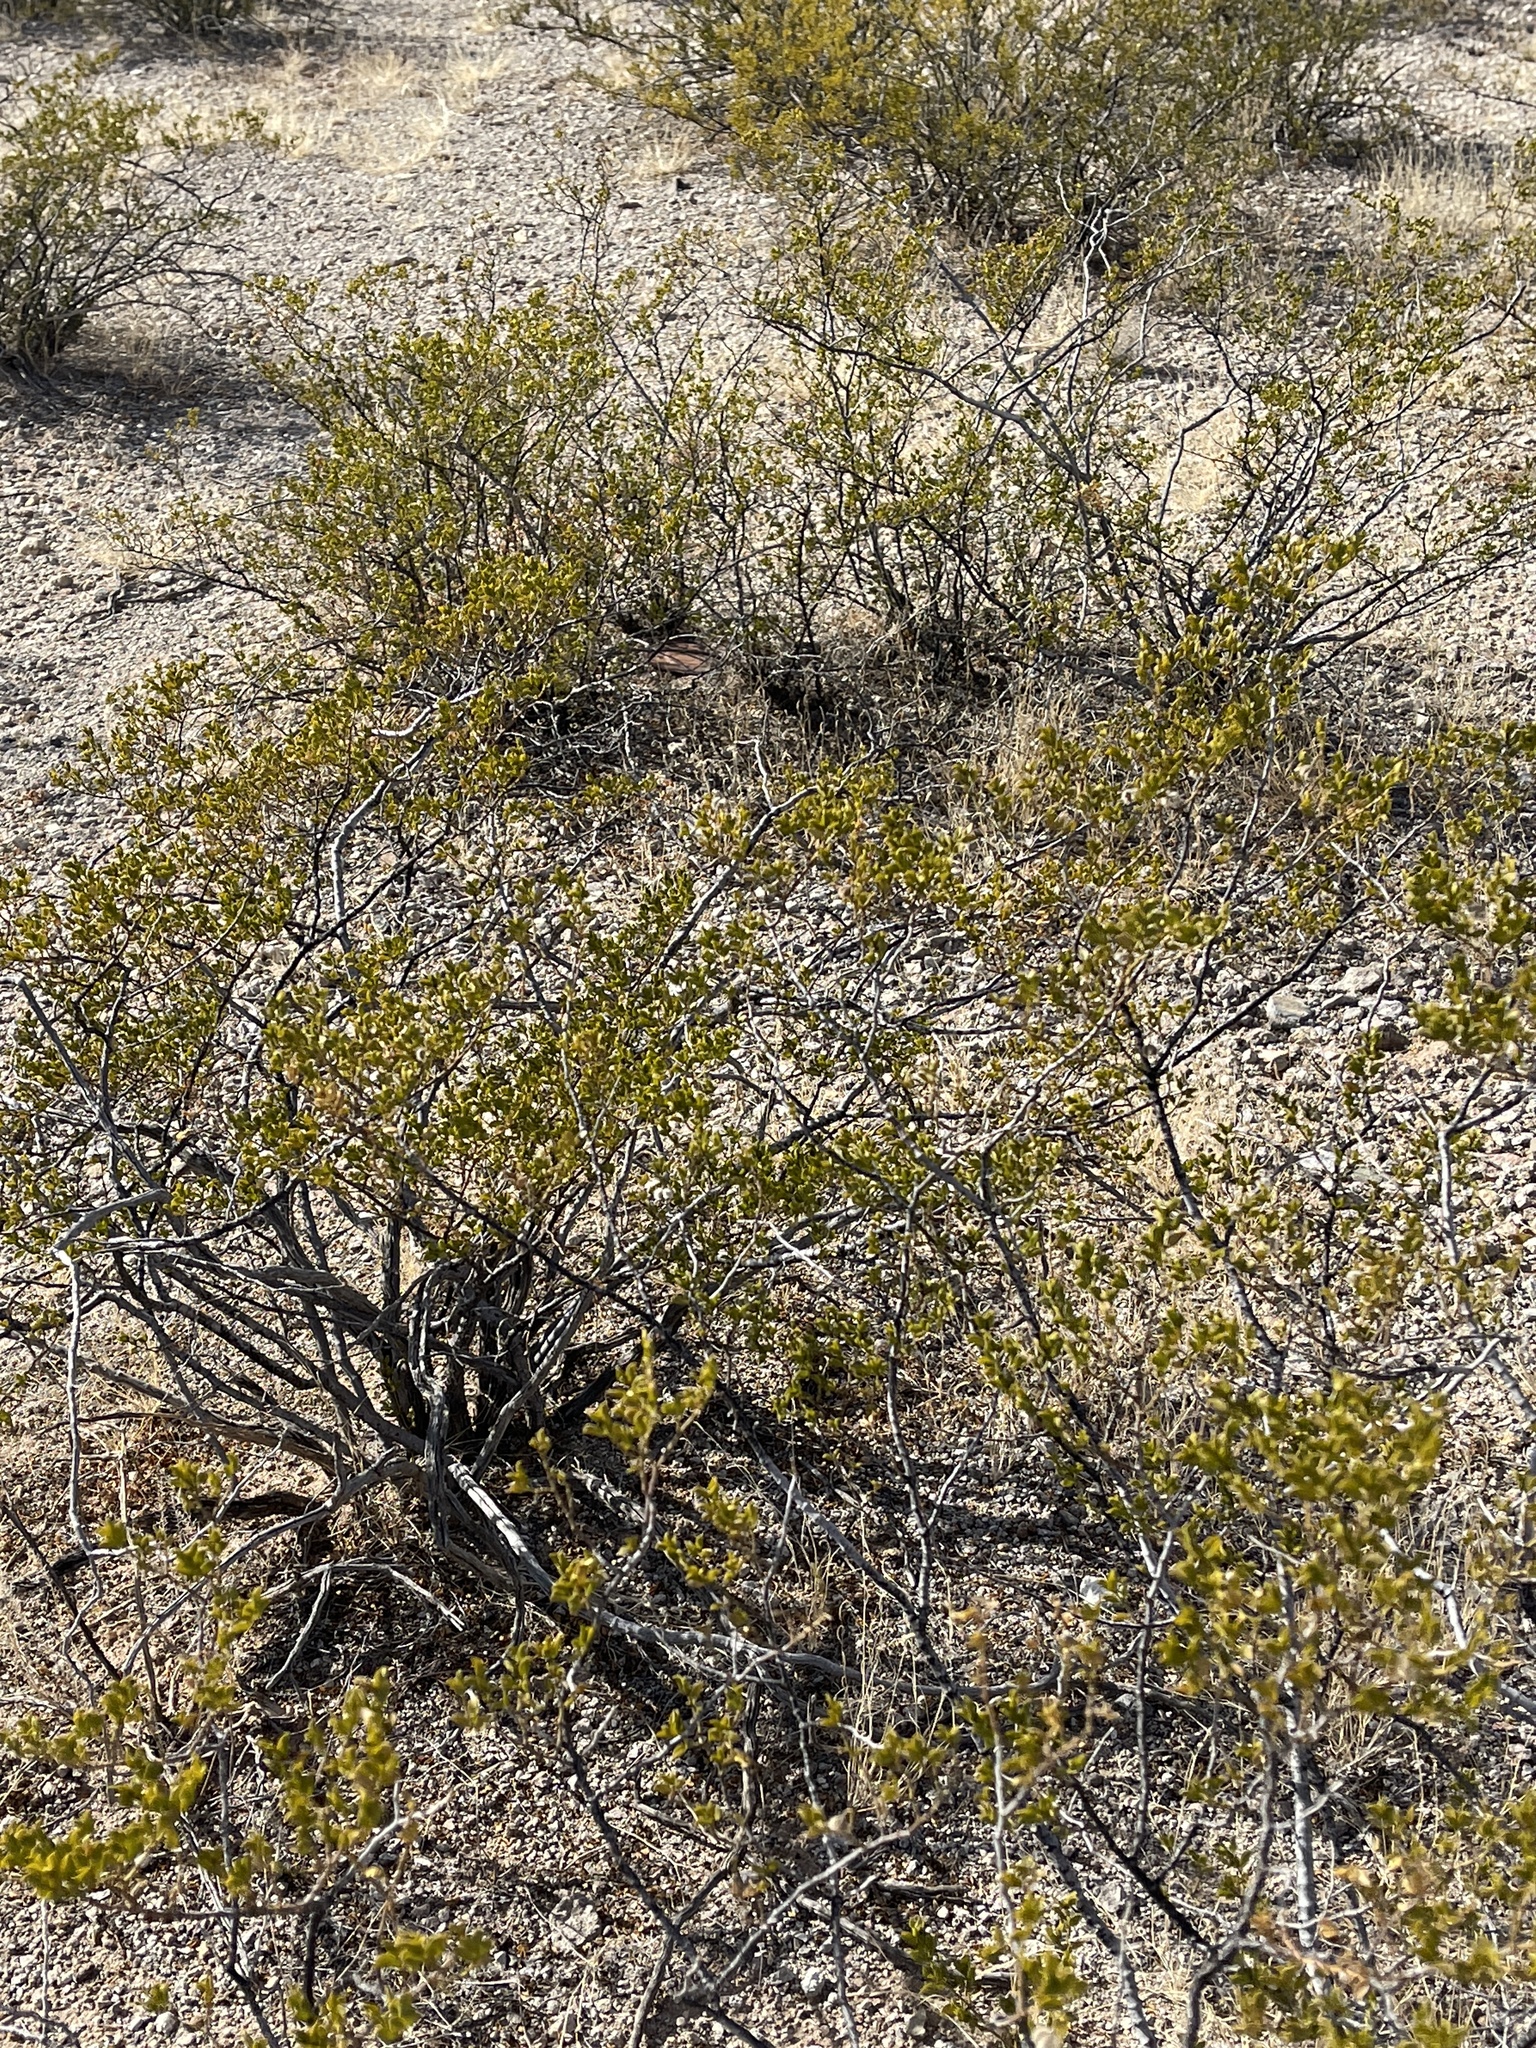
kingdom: Plantae
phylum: Tracheophyta
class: Magnoliopsida
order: Zygophyllales
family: Zygophyllaceae
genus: Larrea
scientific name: Larrea tridentata
